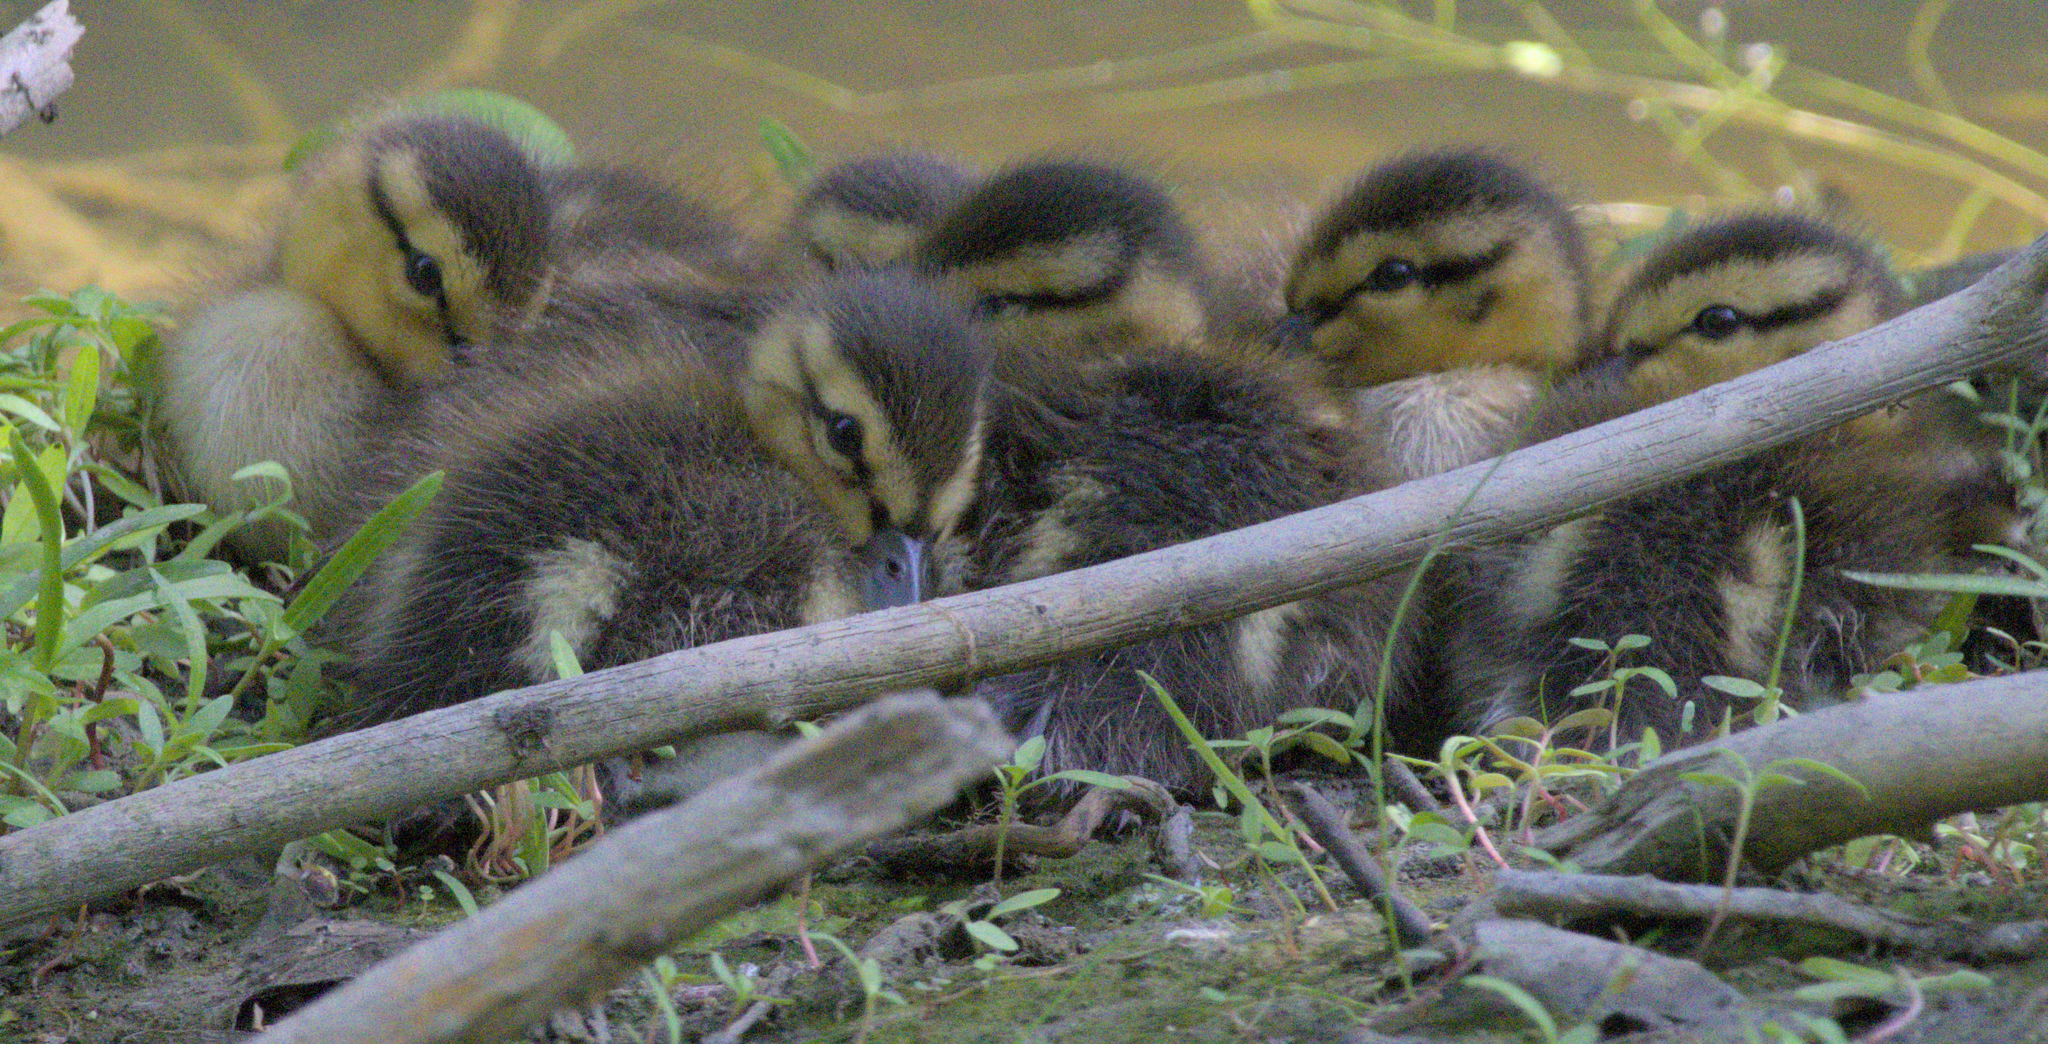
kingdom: Animalia
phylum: Chordata
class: Aves
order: Anseriformes
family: Anatidae
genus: Anas
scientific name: Anas platyrhynchos
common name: Mallard
